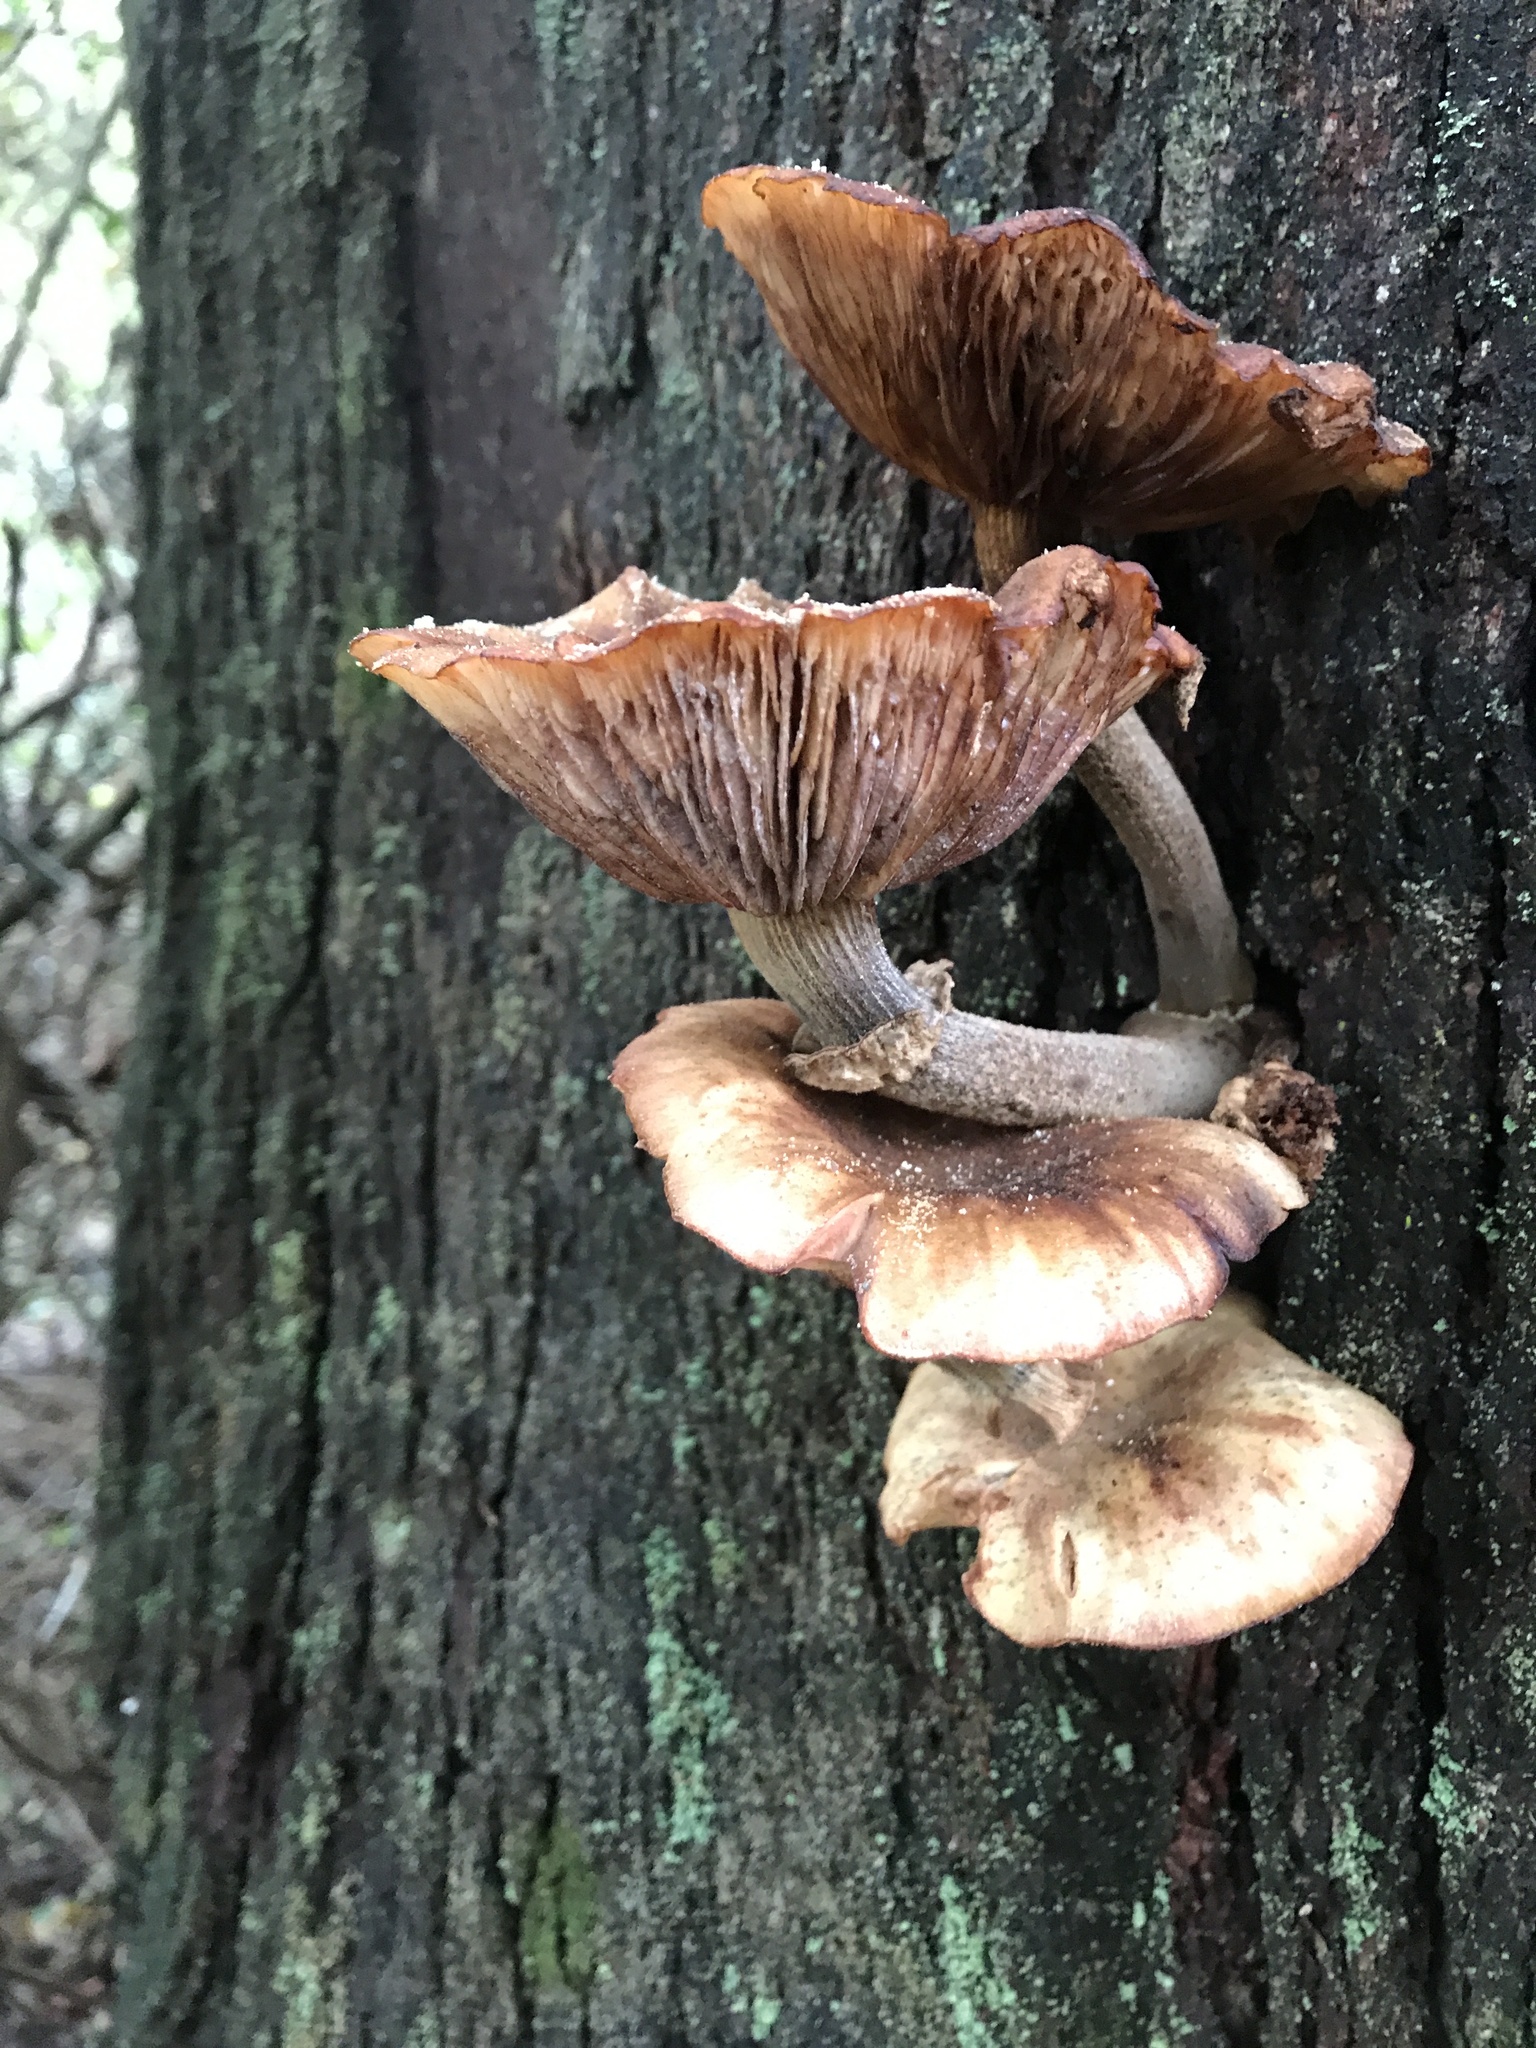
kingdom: Fungi
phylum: Basidiomycota
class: Agaricomycetes
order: Agaricales
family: Physalacriaceae
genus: Armillaria
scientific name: Armillaria novae-zelandiae
